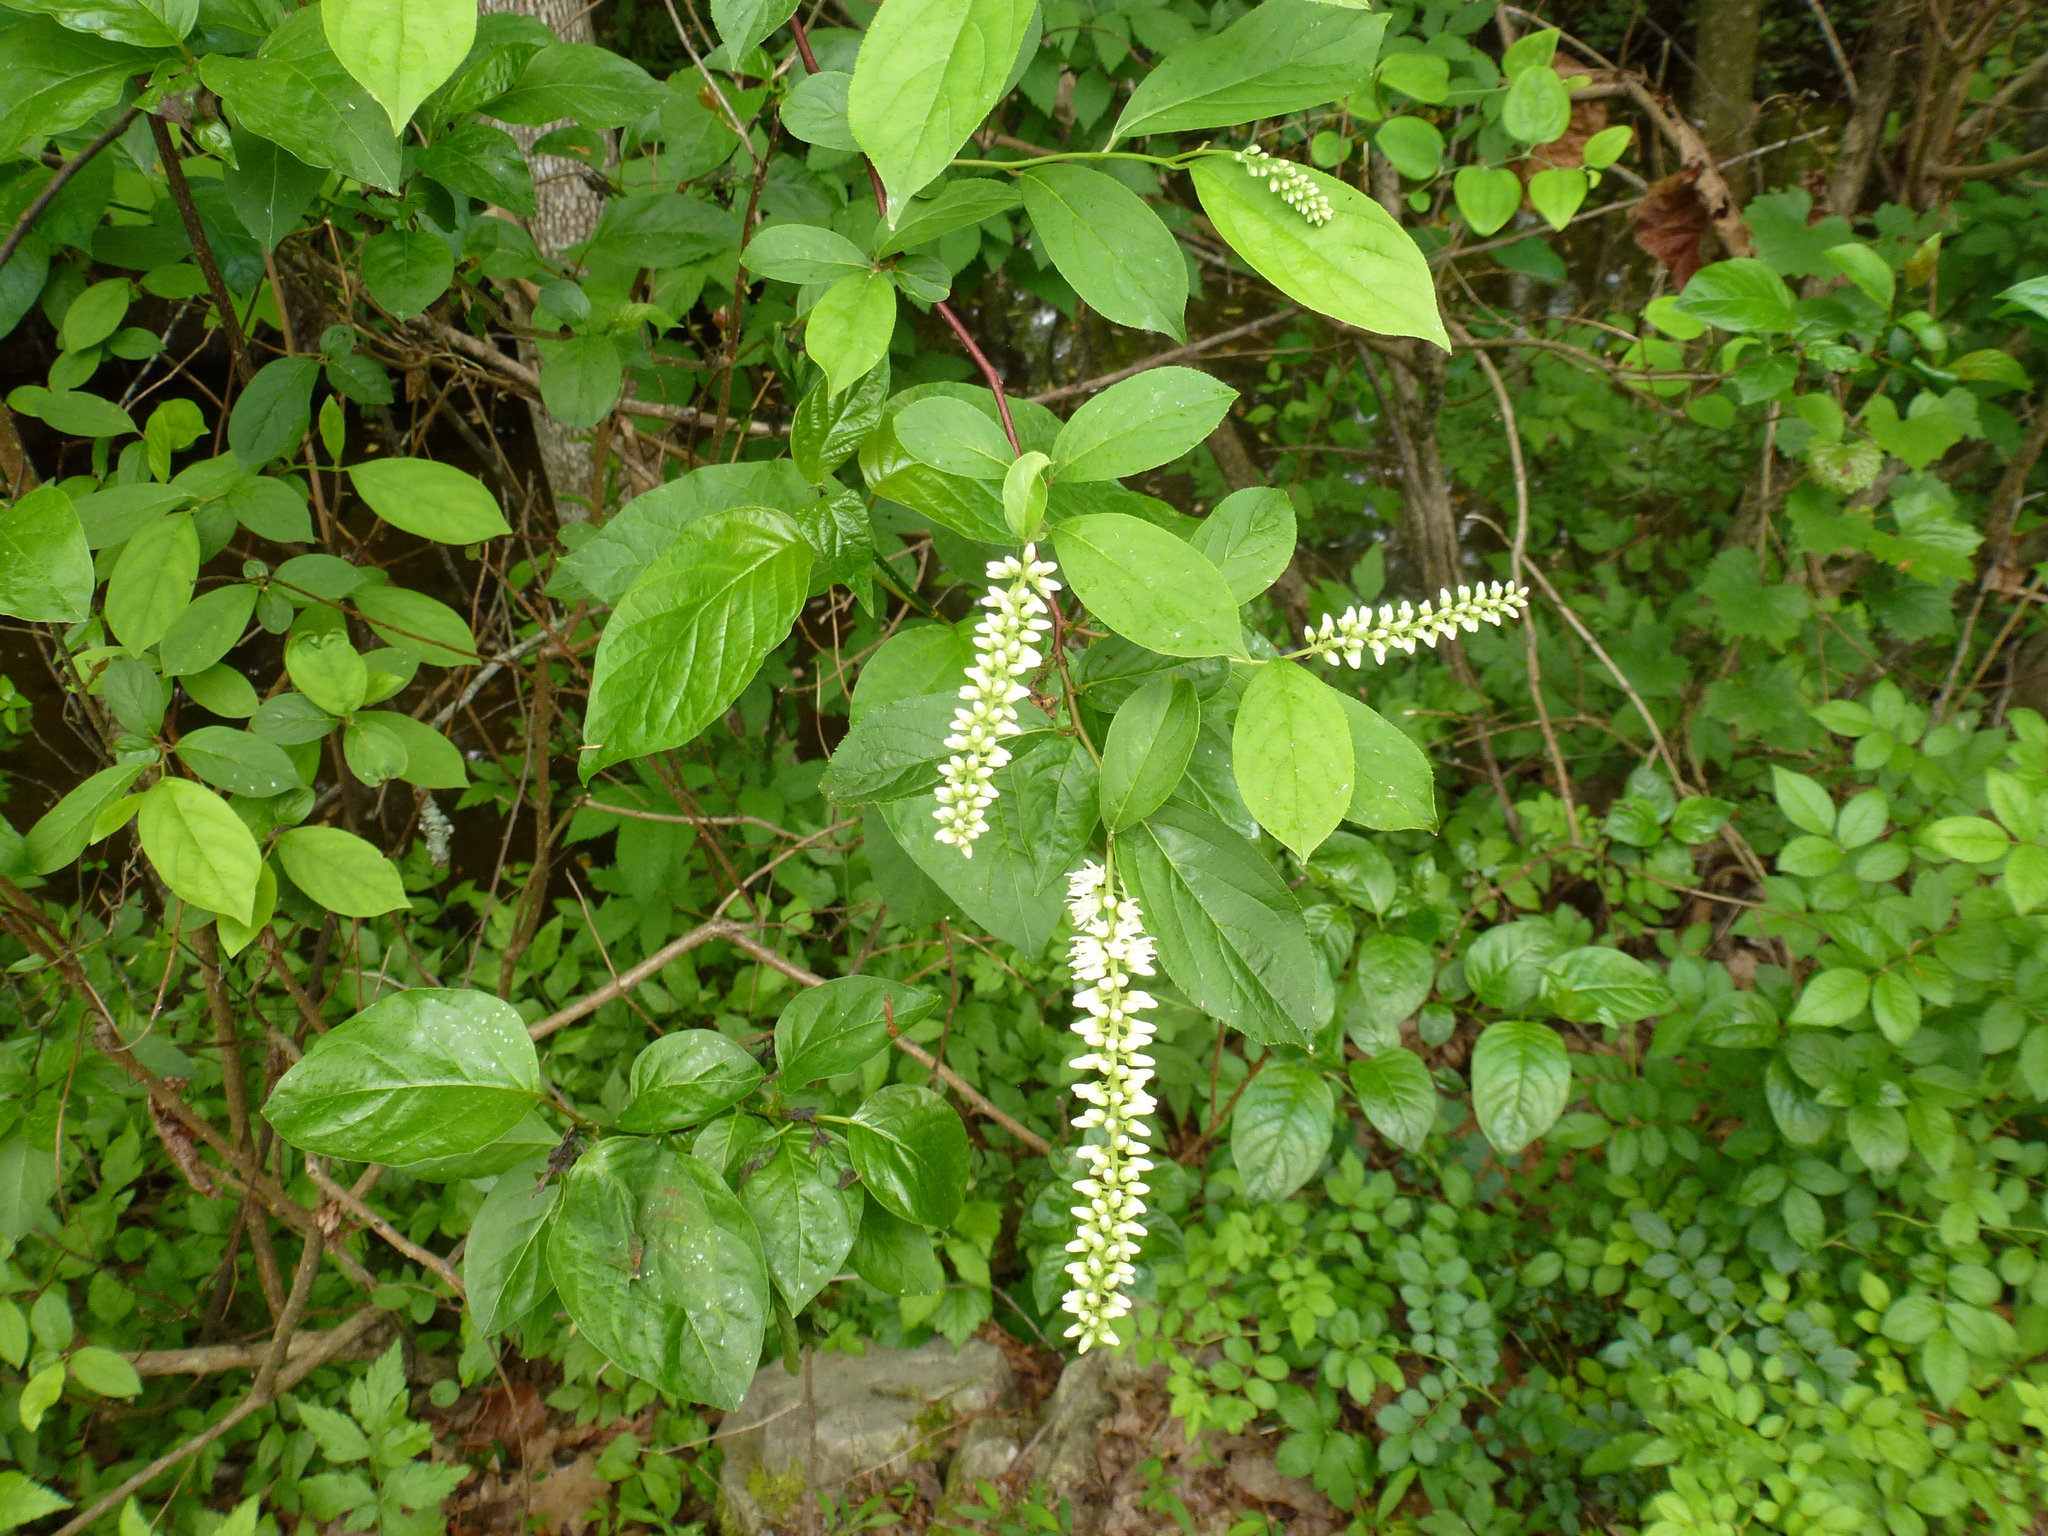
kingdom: Plantae
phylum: Tracheophyta
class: Magnoliopsida
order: Saxifragales
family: Iteaceae
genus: Itea
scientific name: Itea virginica
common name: Sweetspire
